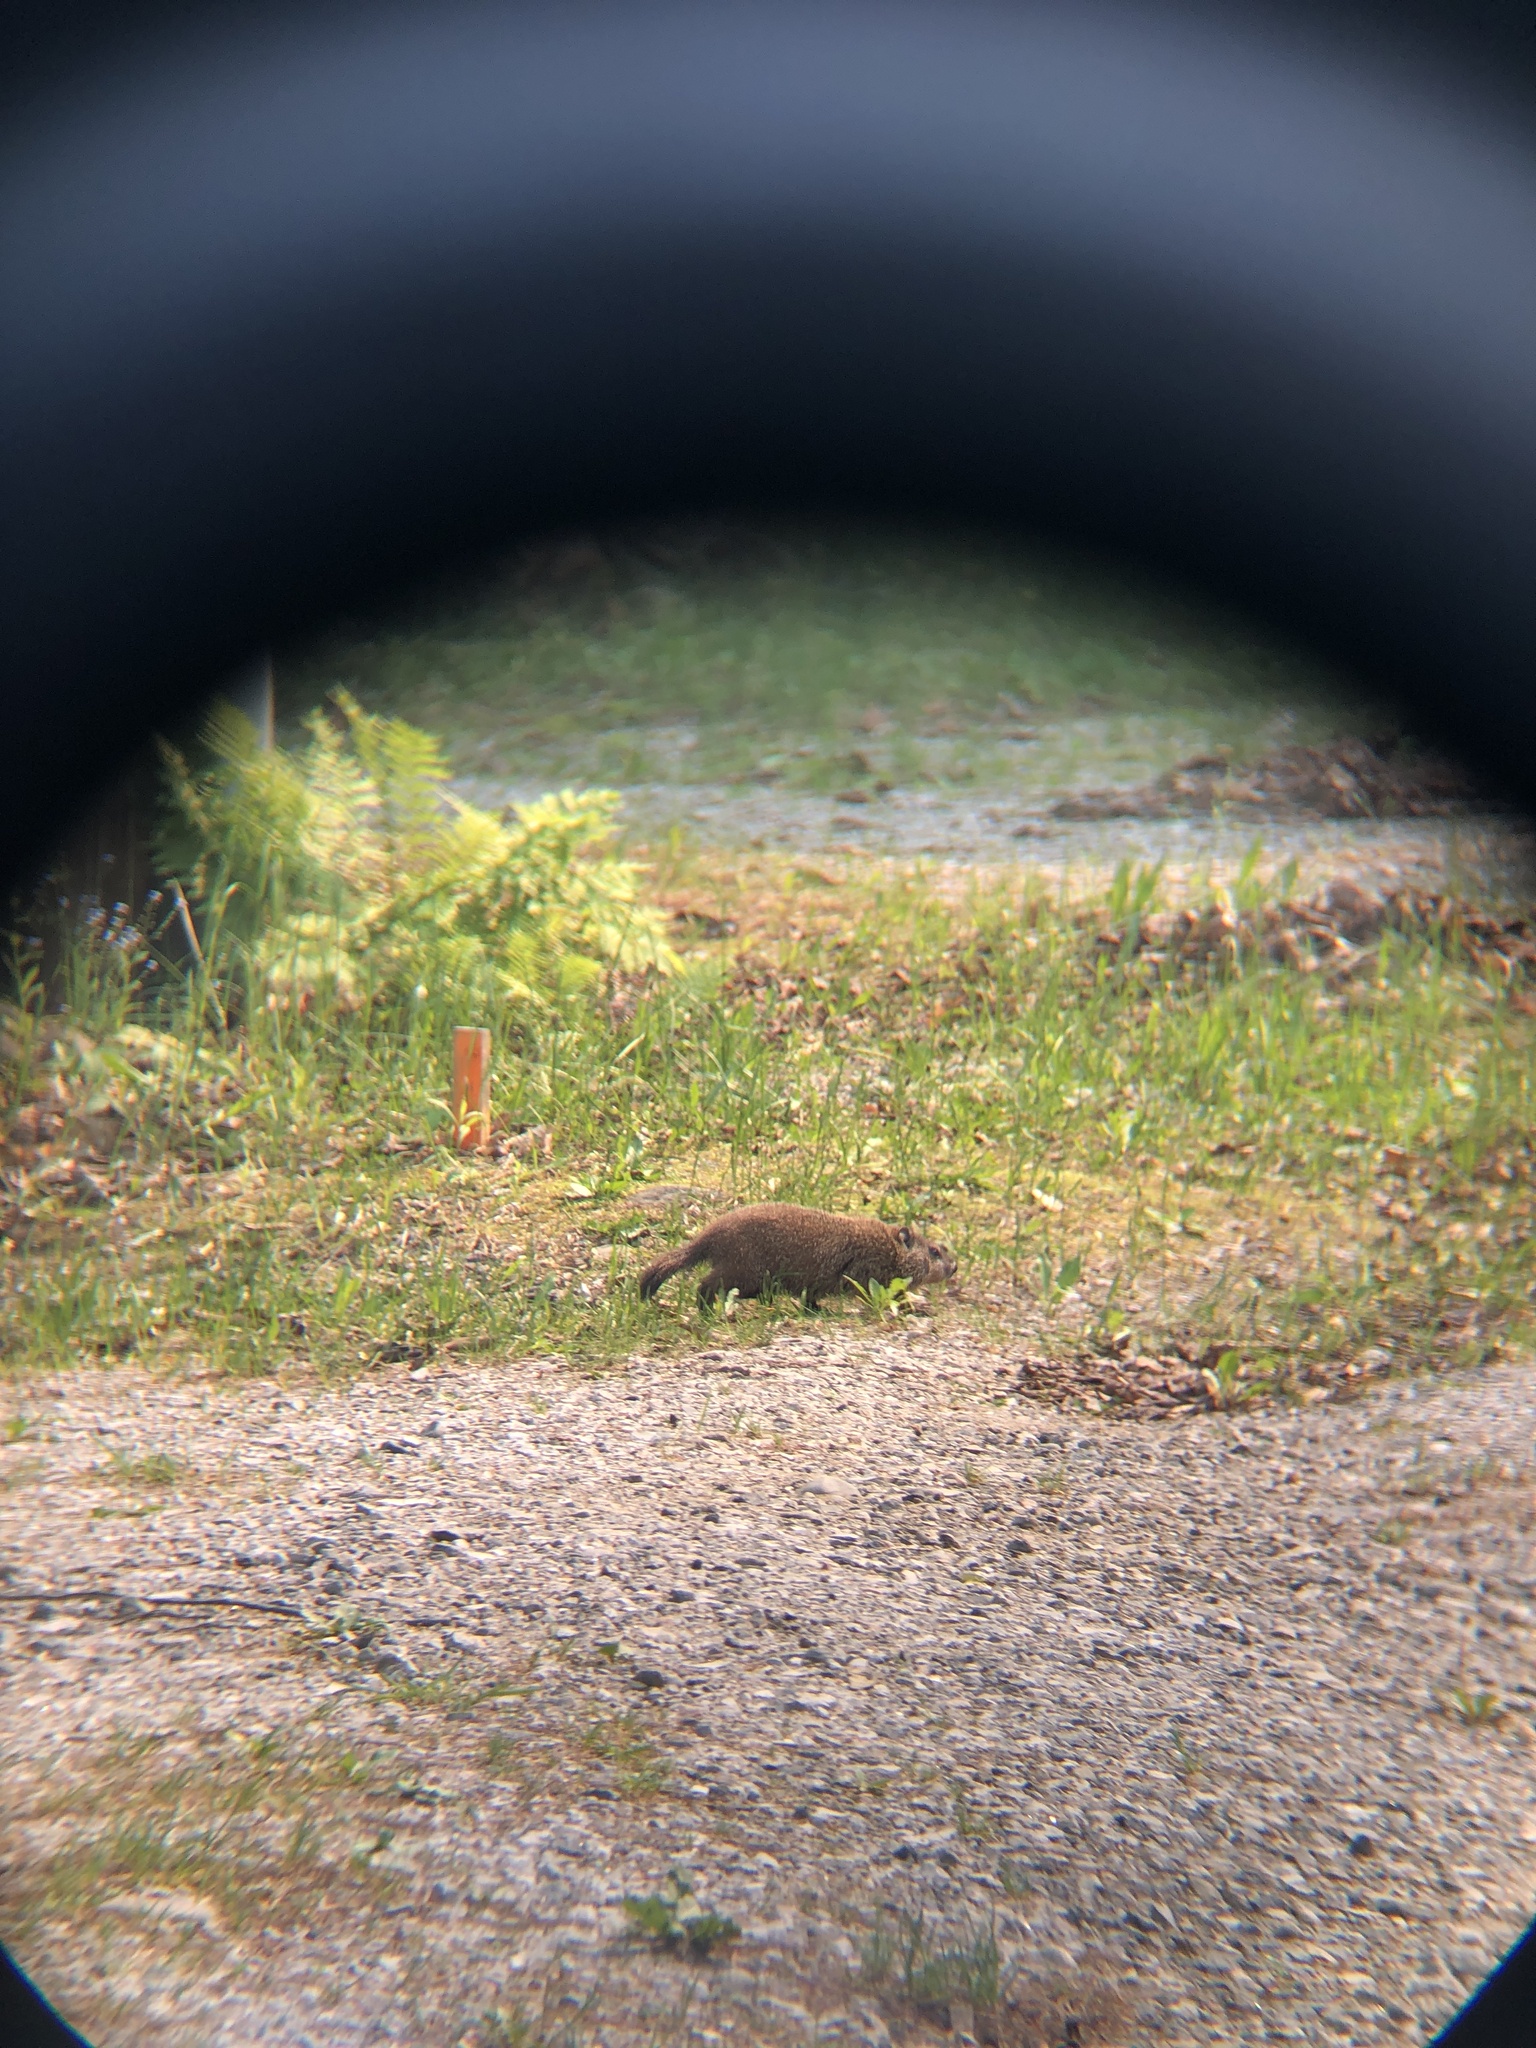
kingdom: Animalia
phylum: Chordata
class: Mammalia
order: Rodentia
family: Sciuridae
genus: Marmota
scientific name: Marmota monax
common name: Groundhog
